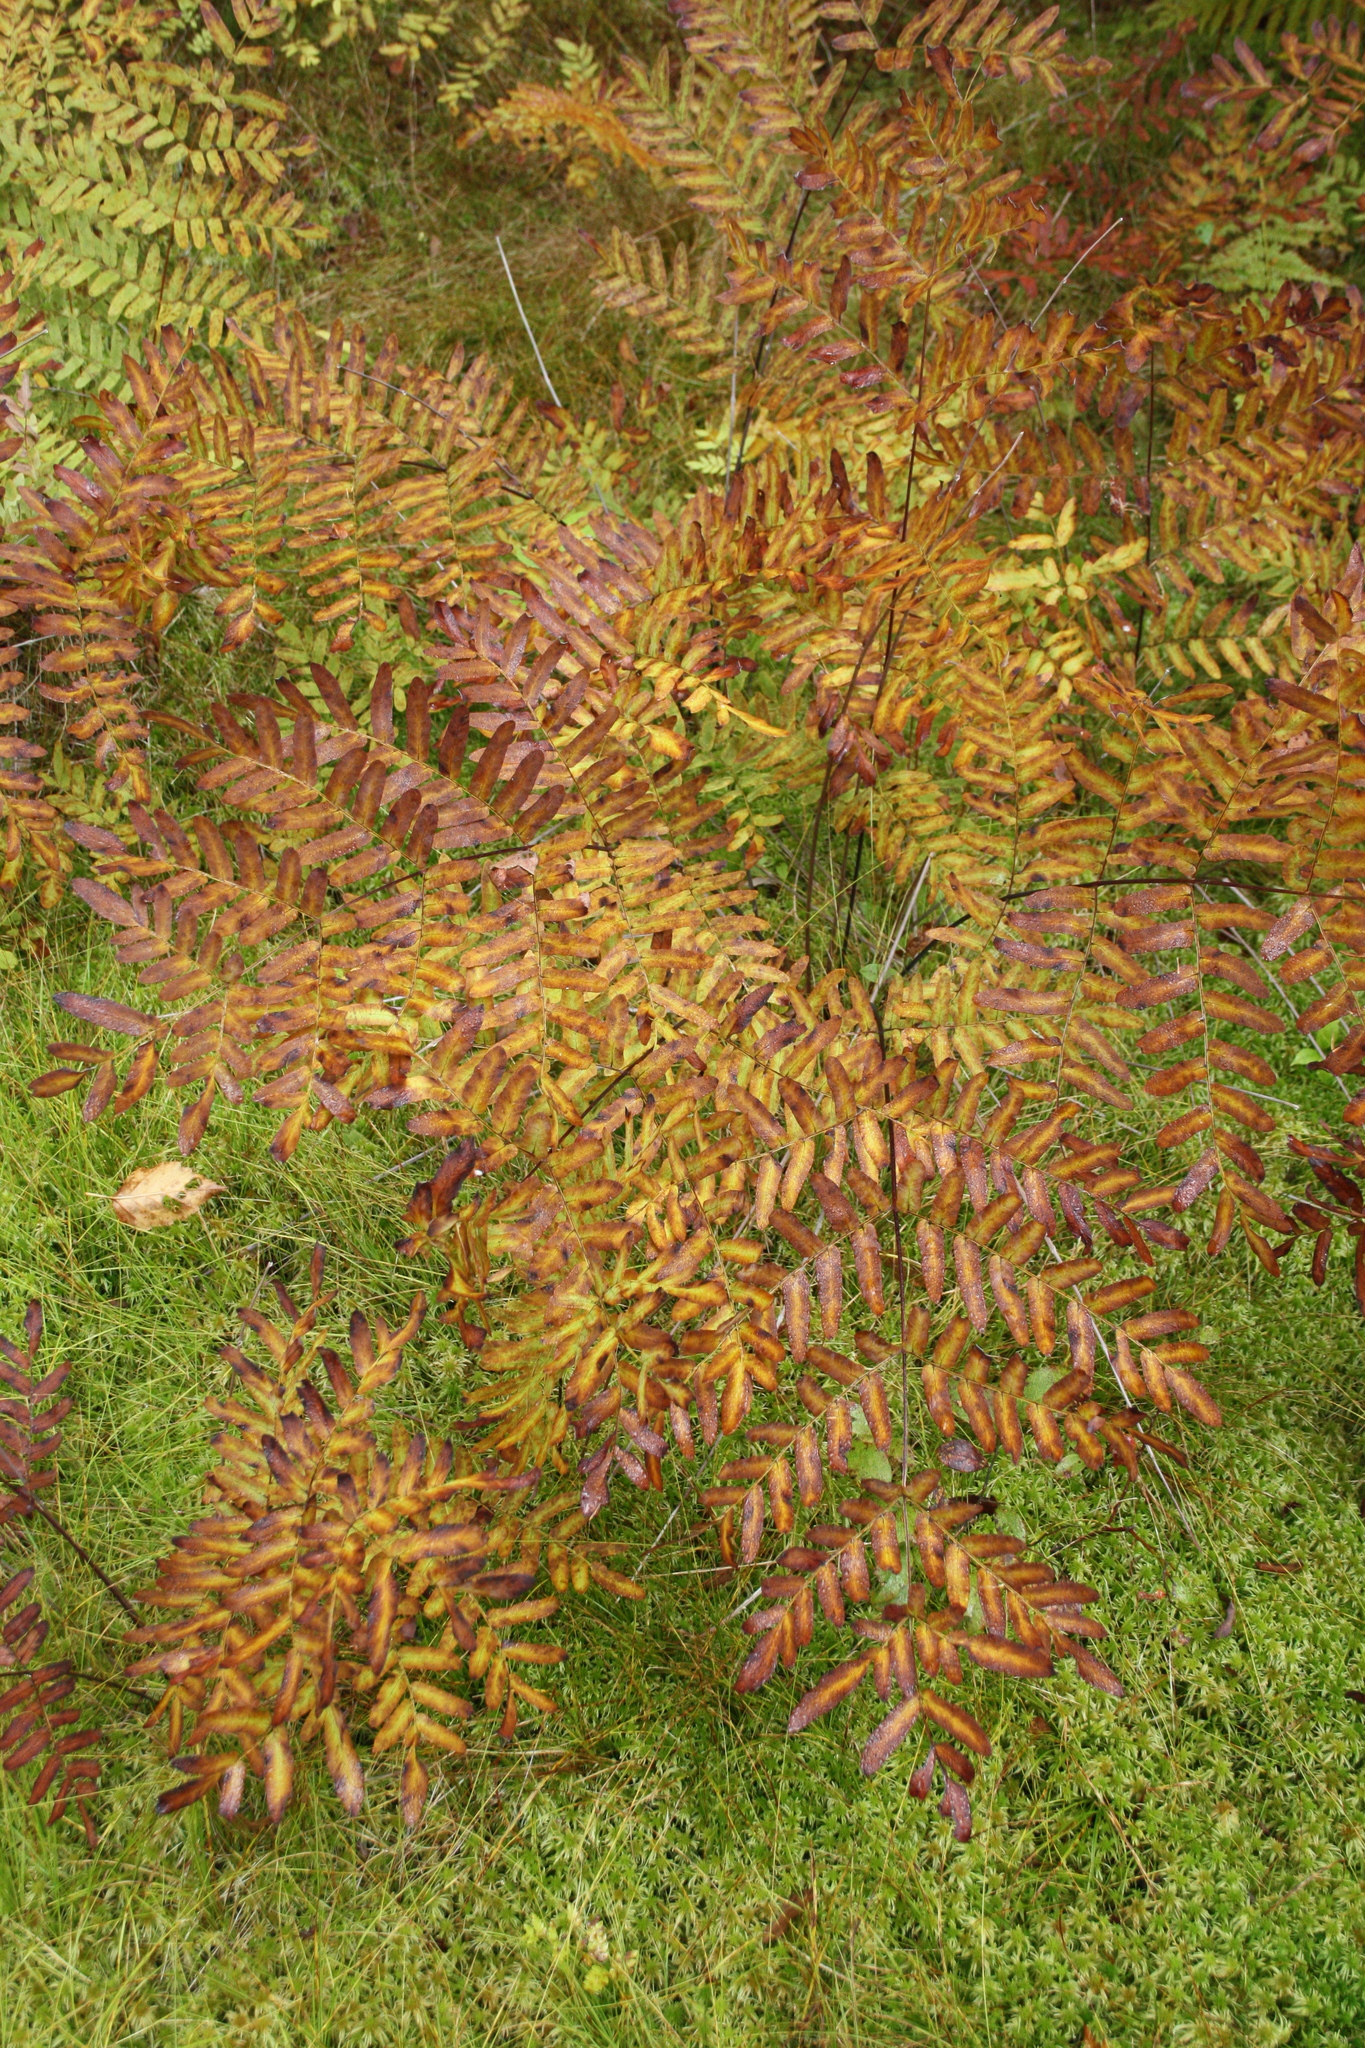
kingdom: Plantae
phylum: Tracheophyta
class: Polypodiopsida
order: Osmundales
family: Osmundaceae
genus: Osmunda
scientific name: Osmunda spectabilis
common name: American royal fern
